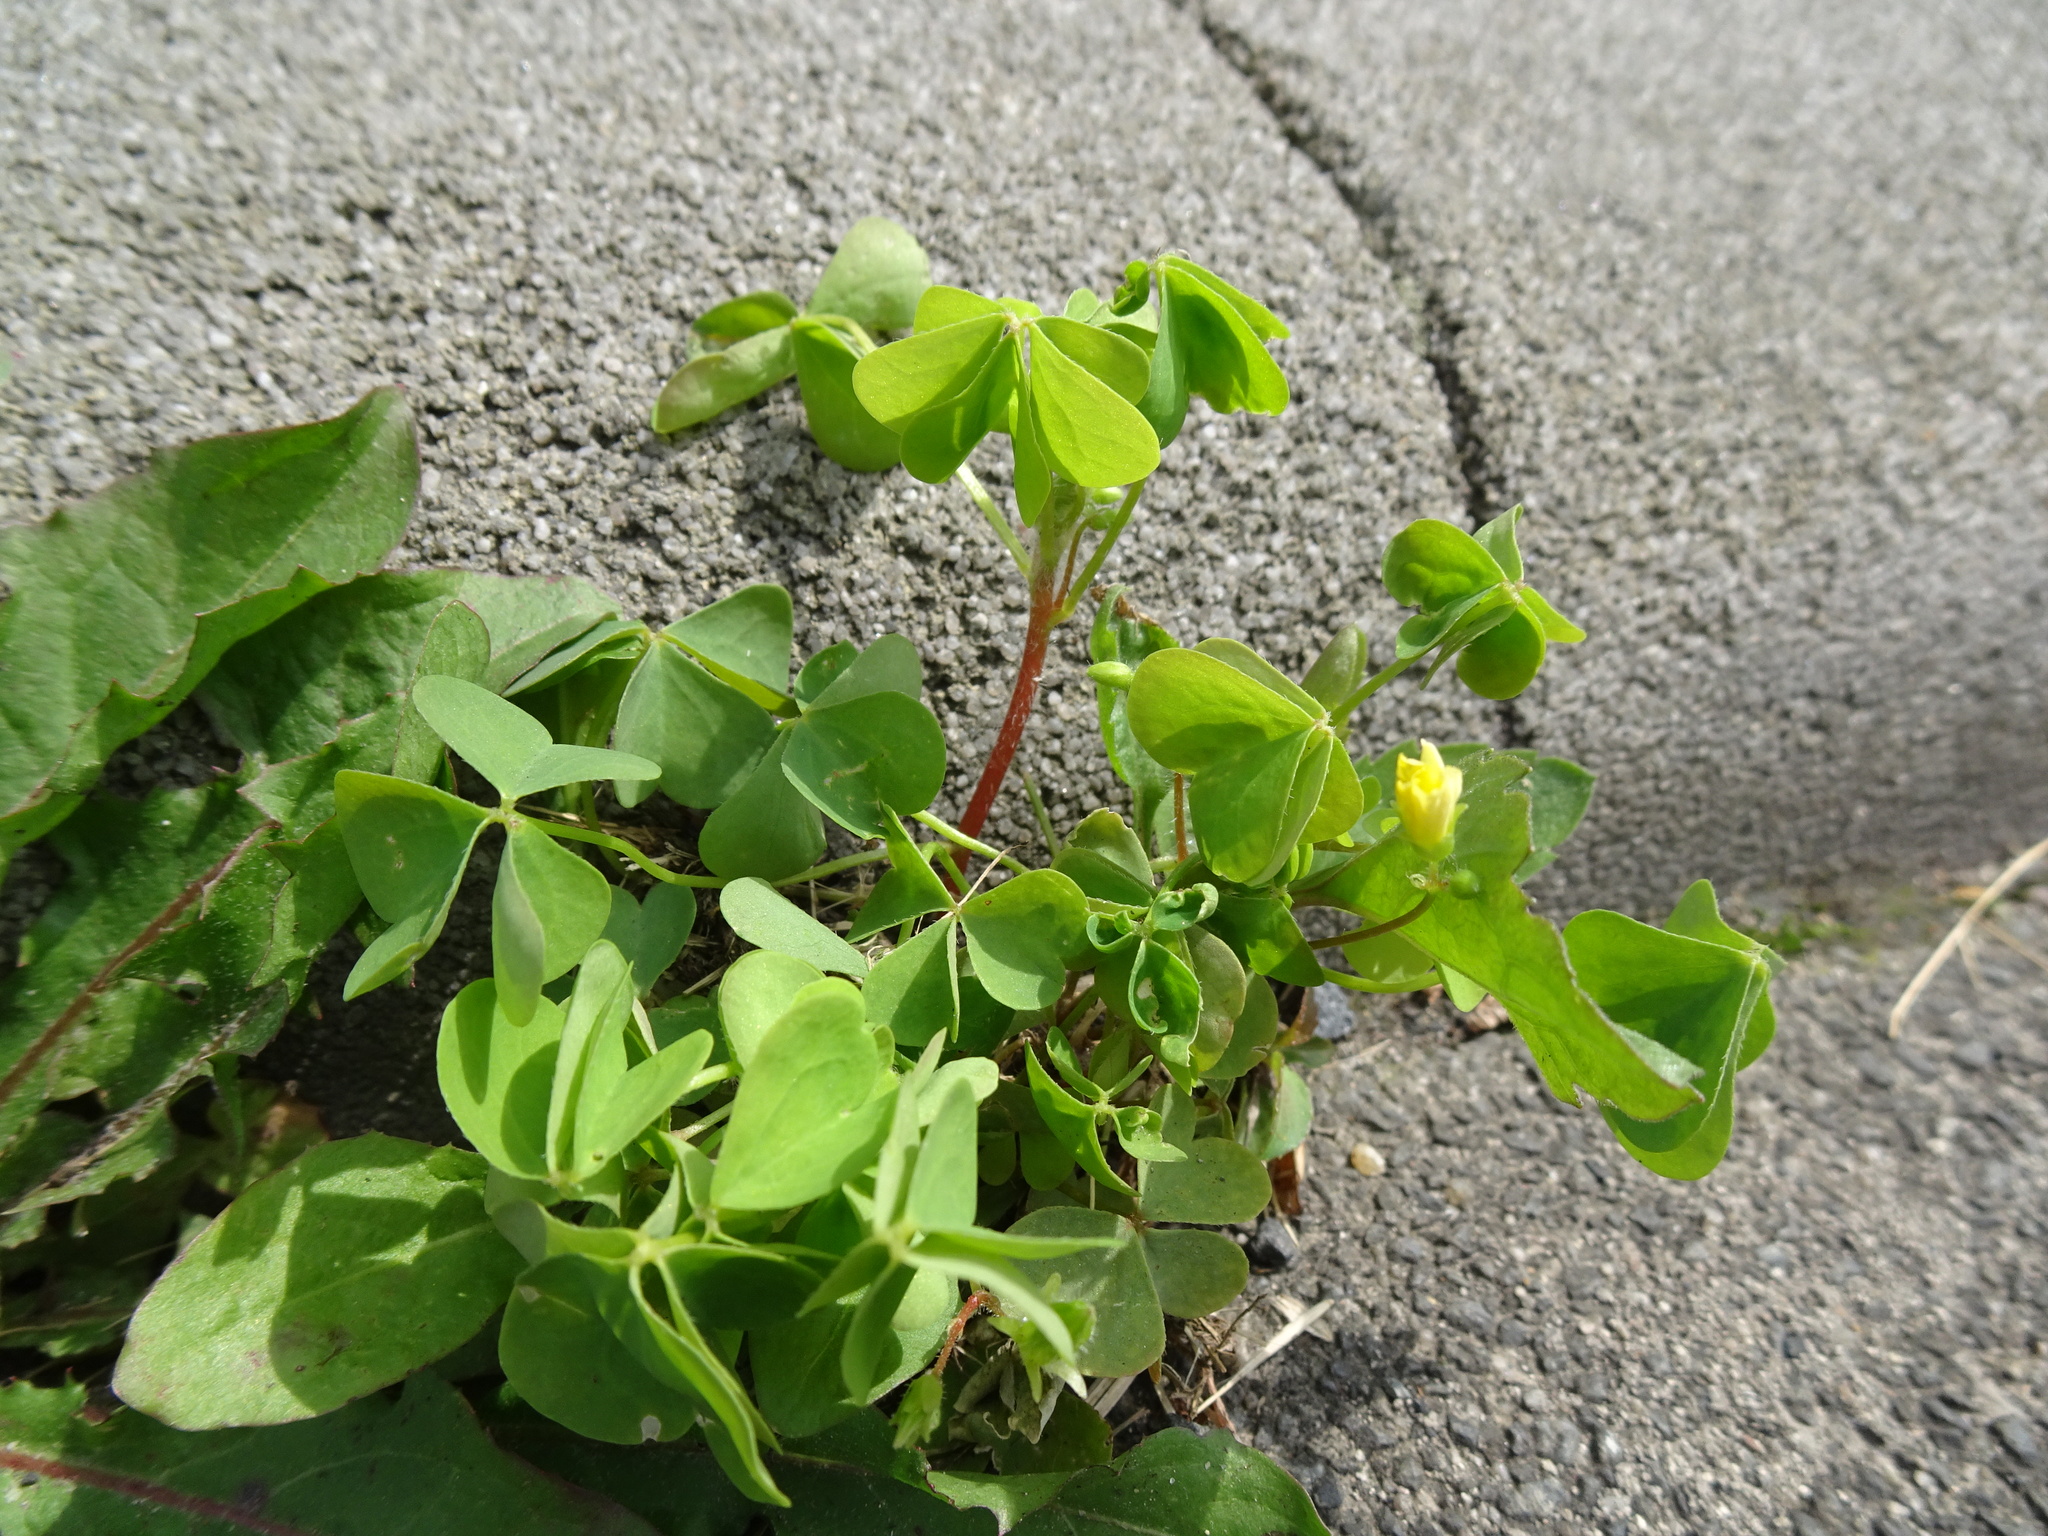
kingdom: Plantae
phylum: Tracheophyta
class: Magnoliopsida
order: Oxalidales
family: Oxalidaceae
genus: Oxalis
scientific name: Oxalis stricta
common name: Upright yellow-sorrel
